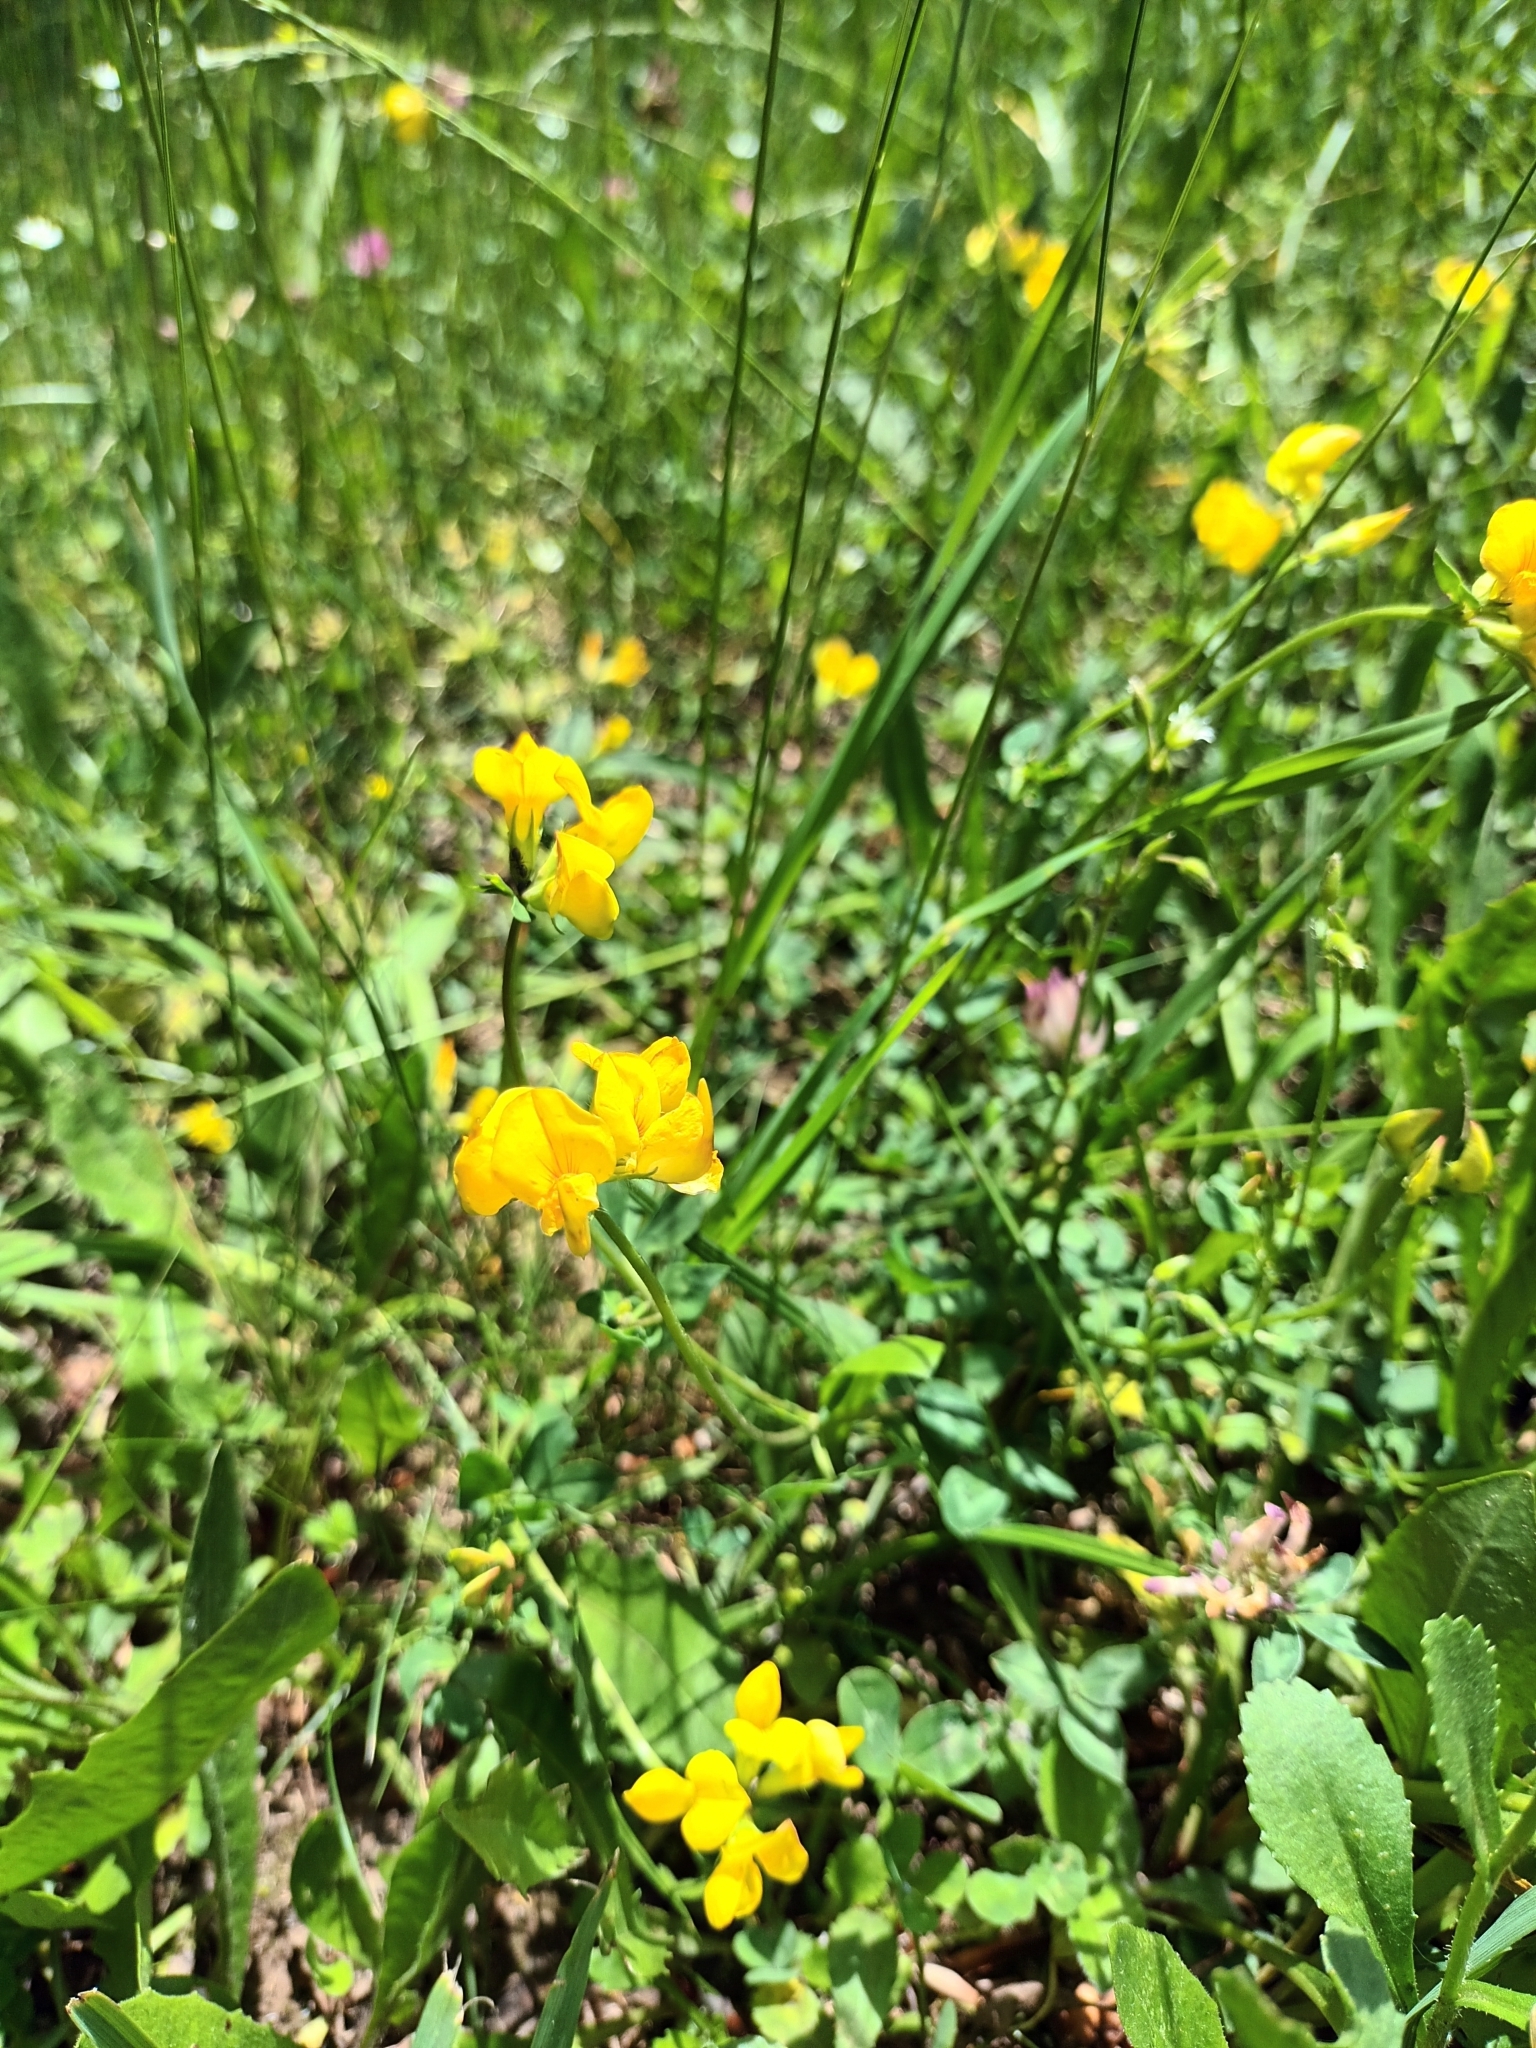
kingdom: Plantae
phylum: Tracheophyta
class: Magnoliopsida
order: Fabales
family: Fabaceae
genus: Lotus
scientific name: Lotus corniculatus
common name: Common bird's-foot-trefoil
